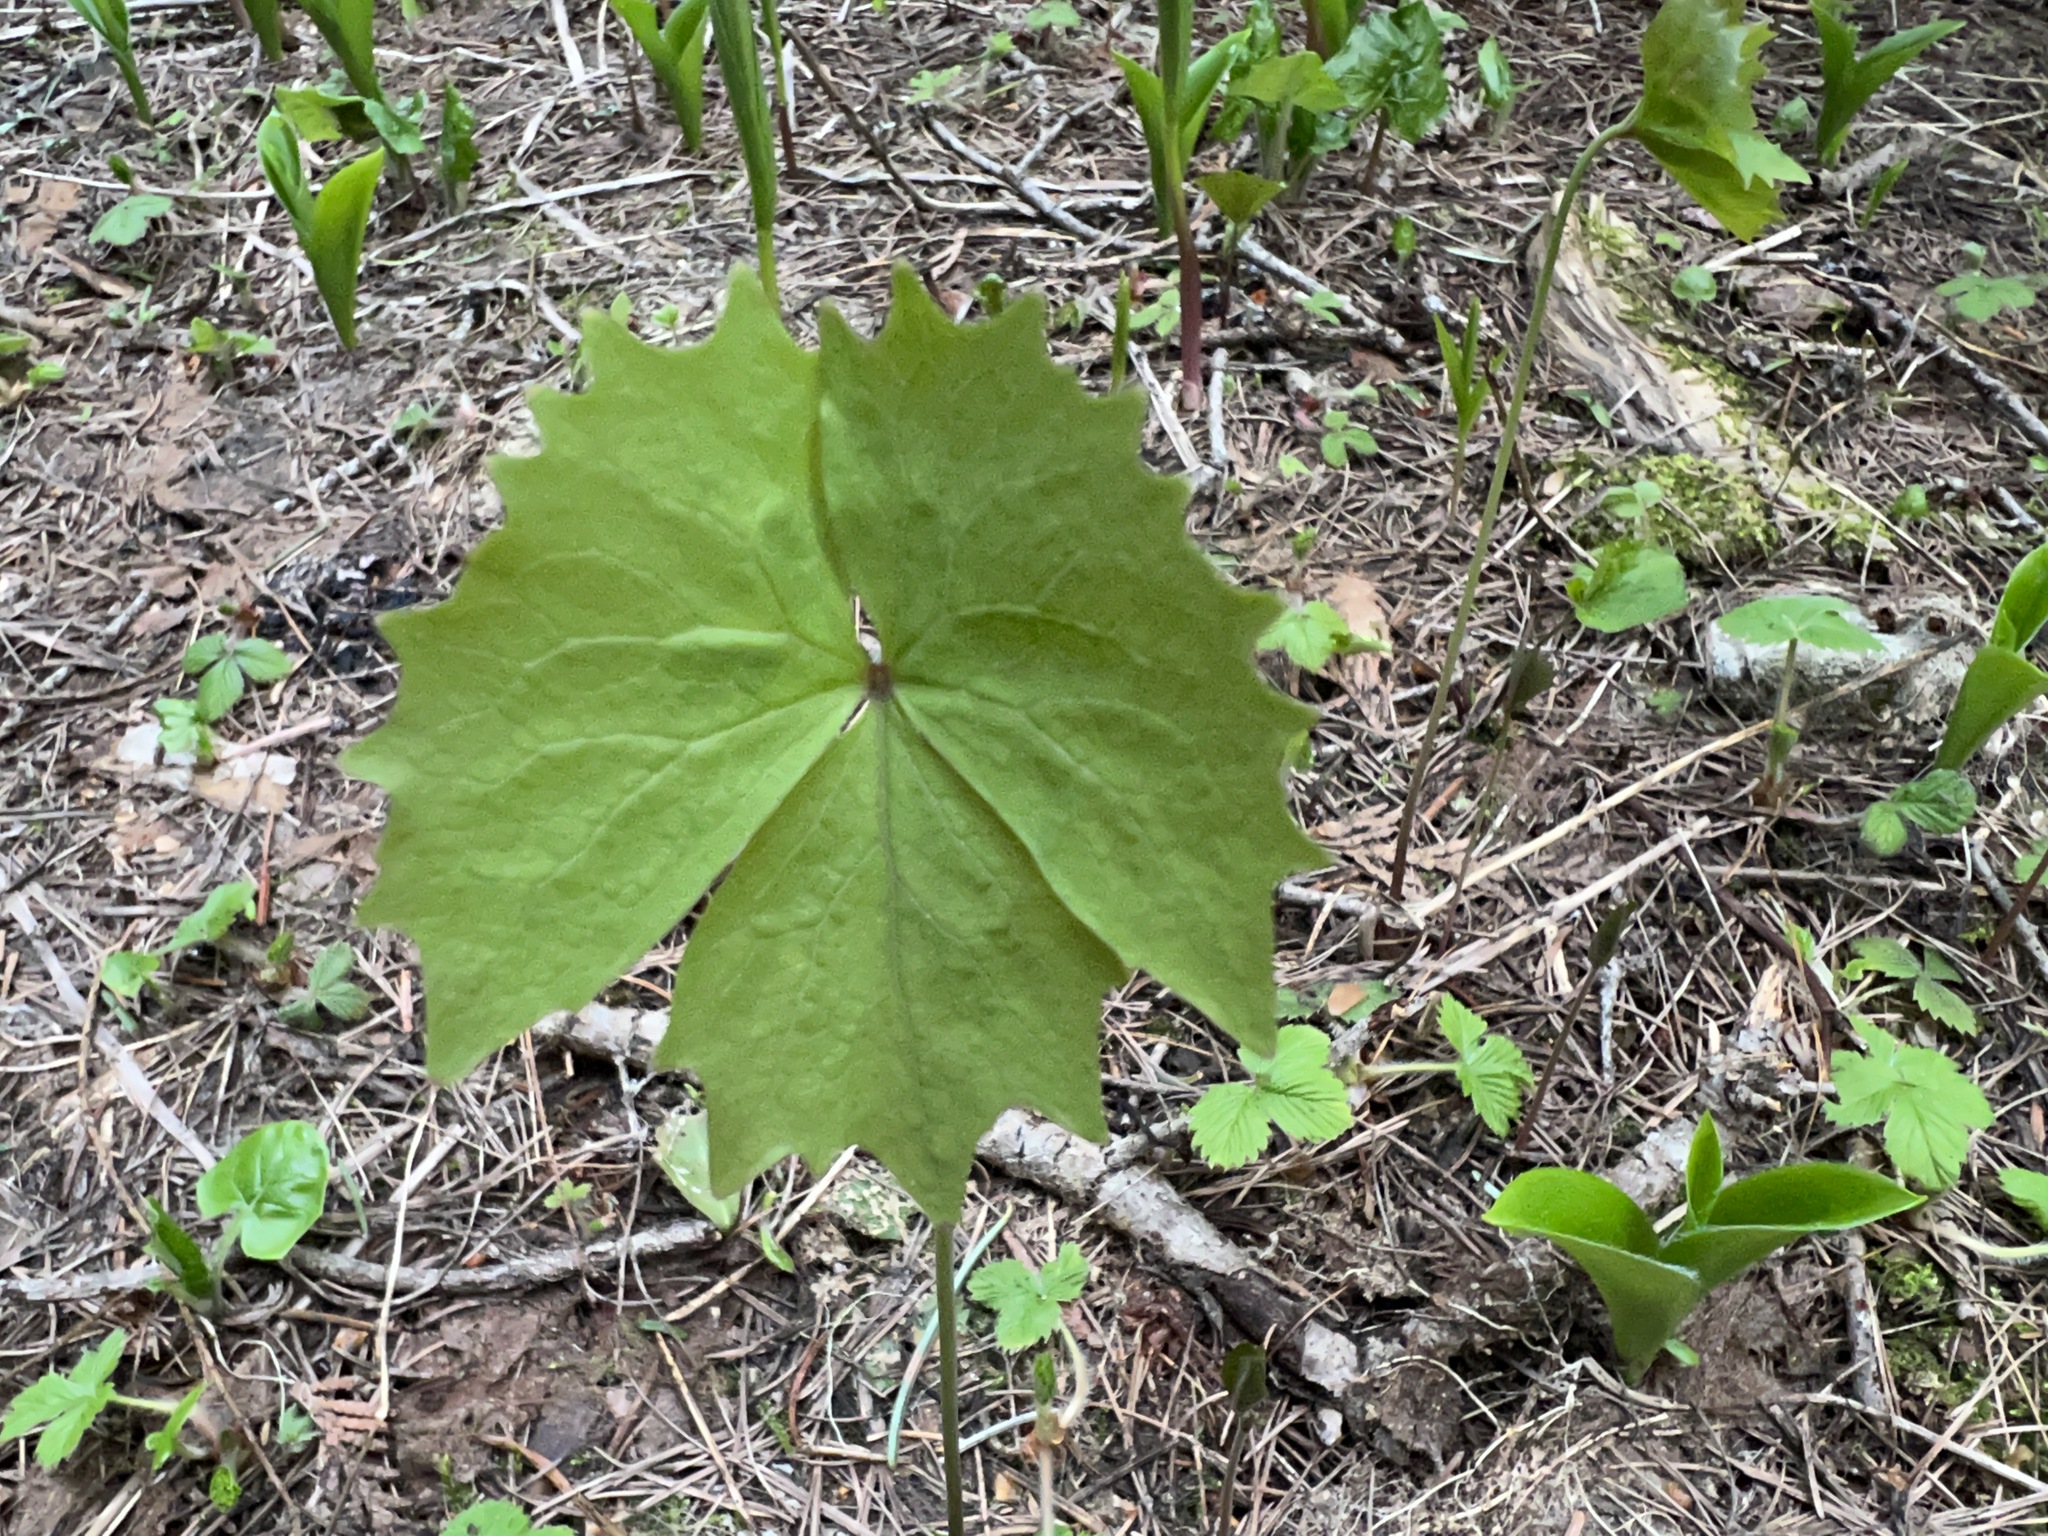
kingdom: Plantae
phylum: Tracheophyta
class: Magnoliopsida
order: Ranunculales
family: Berberidaceae
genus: Achlys
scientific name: Achlys triphylla
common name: Vanilla-leaf
